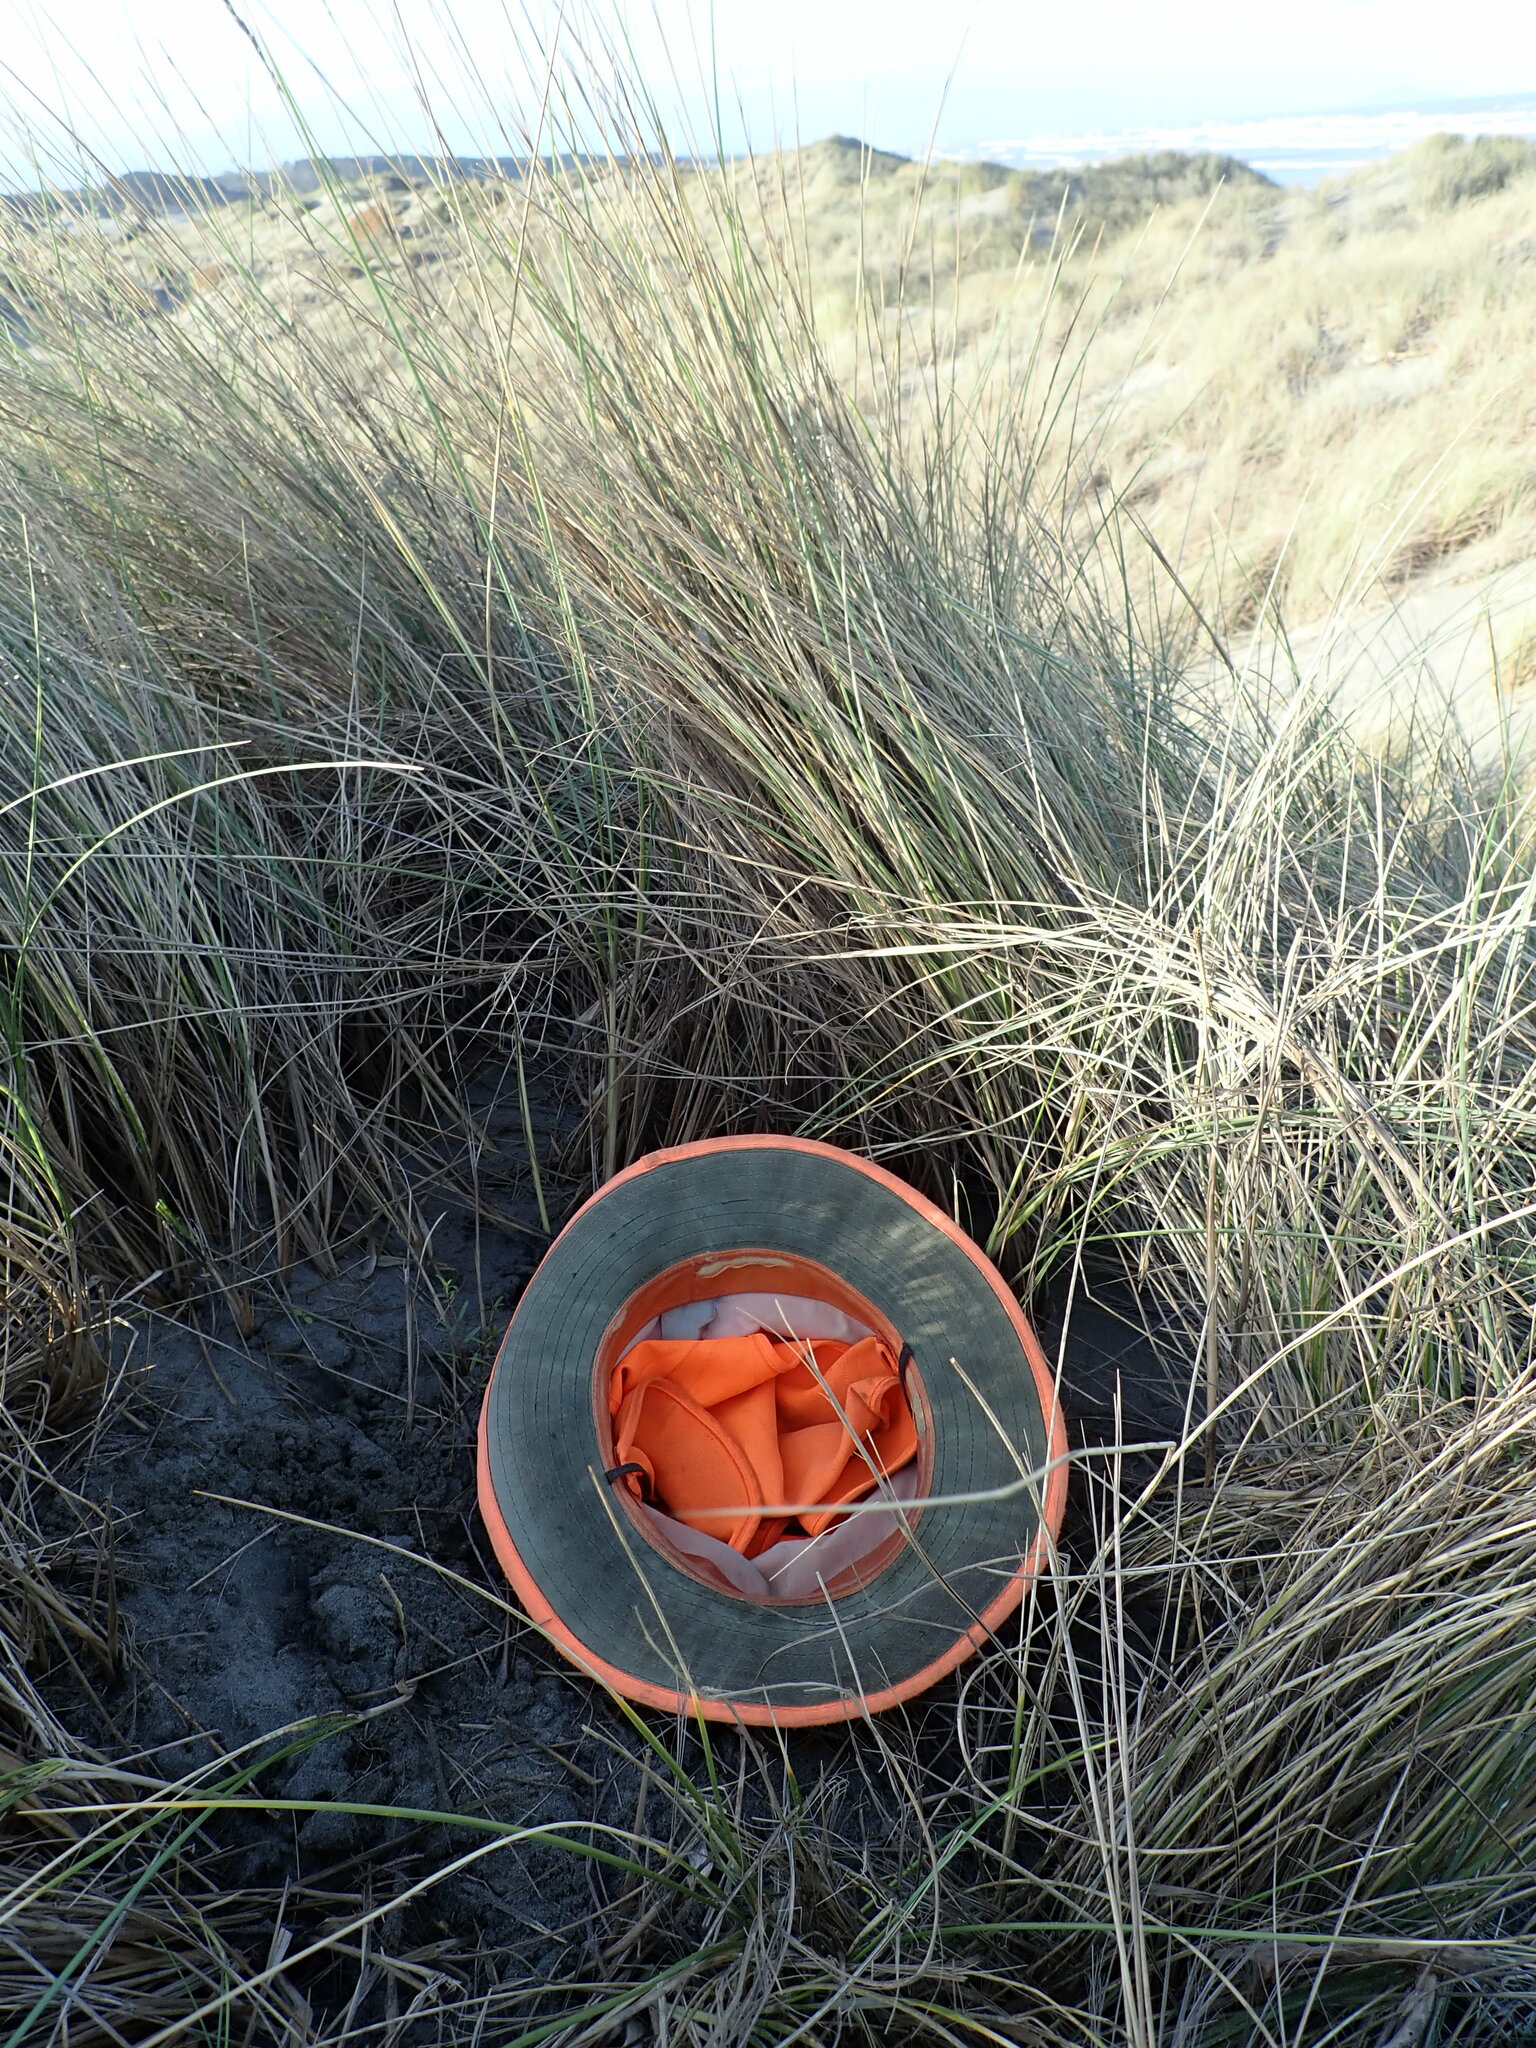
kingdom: Plantae
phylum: Tracheophyta
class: Magnoliopsida
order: Gentianales
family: Rubiaceae
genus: Coprosma
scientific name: Coprosma acerosa
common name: Sand coprosma
